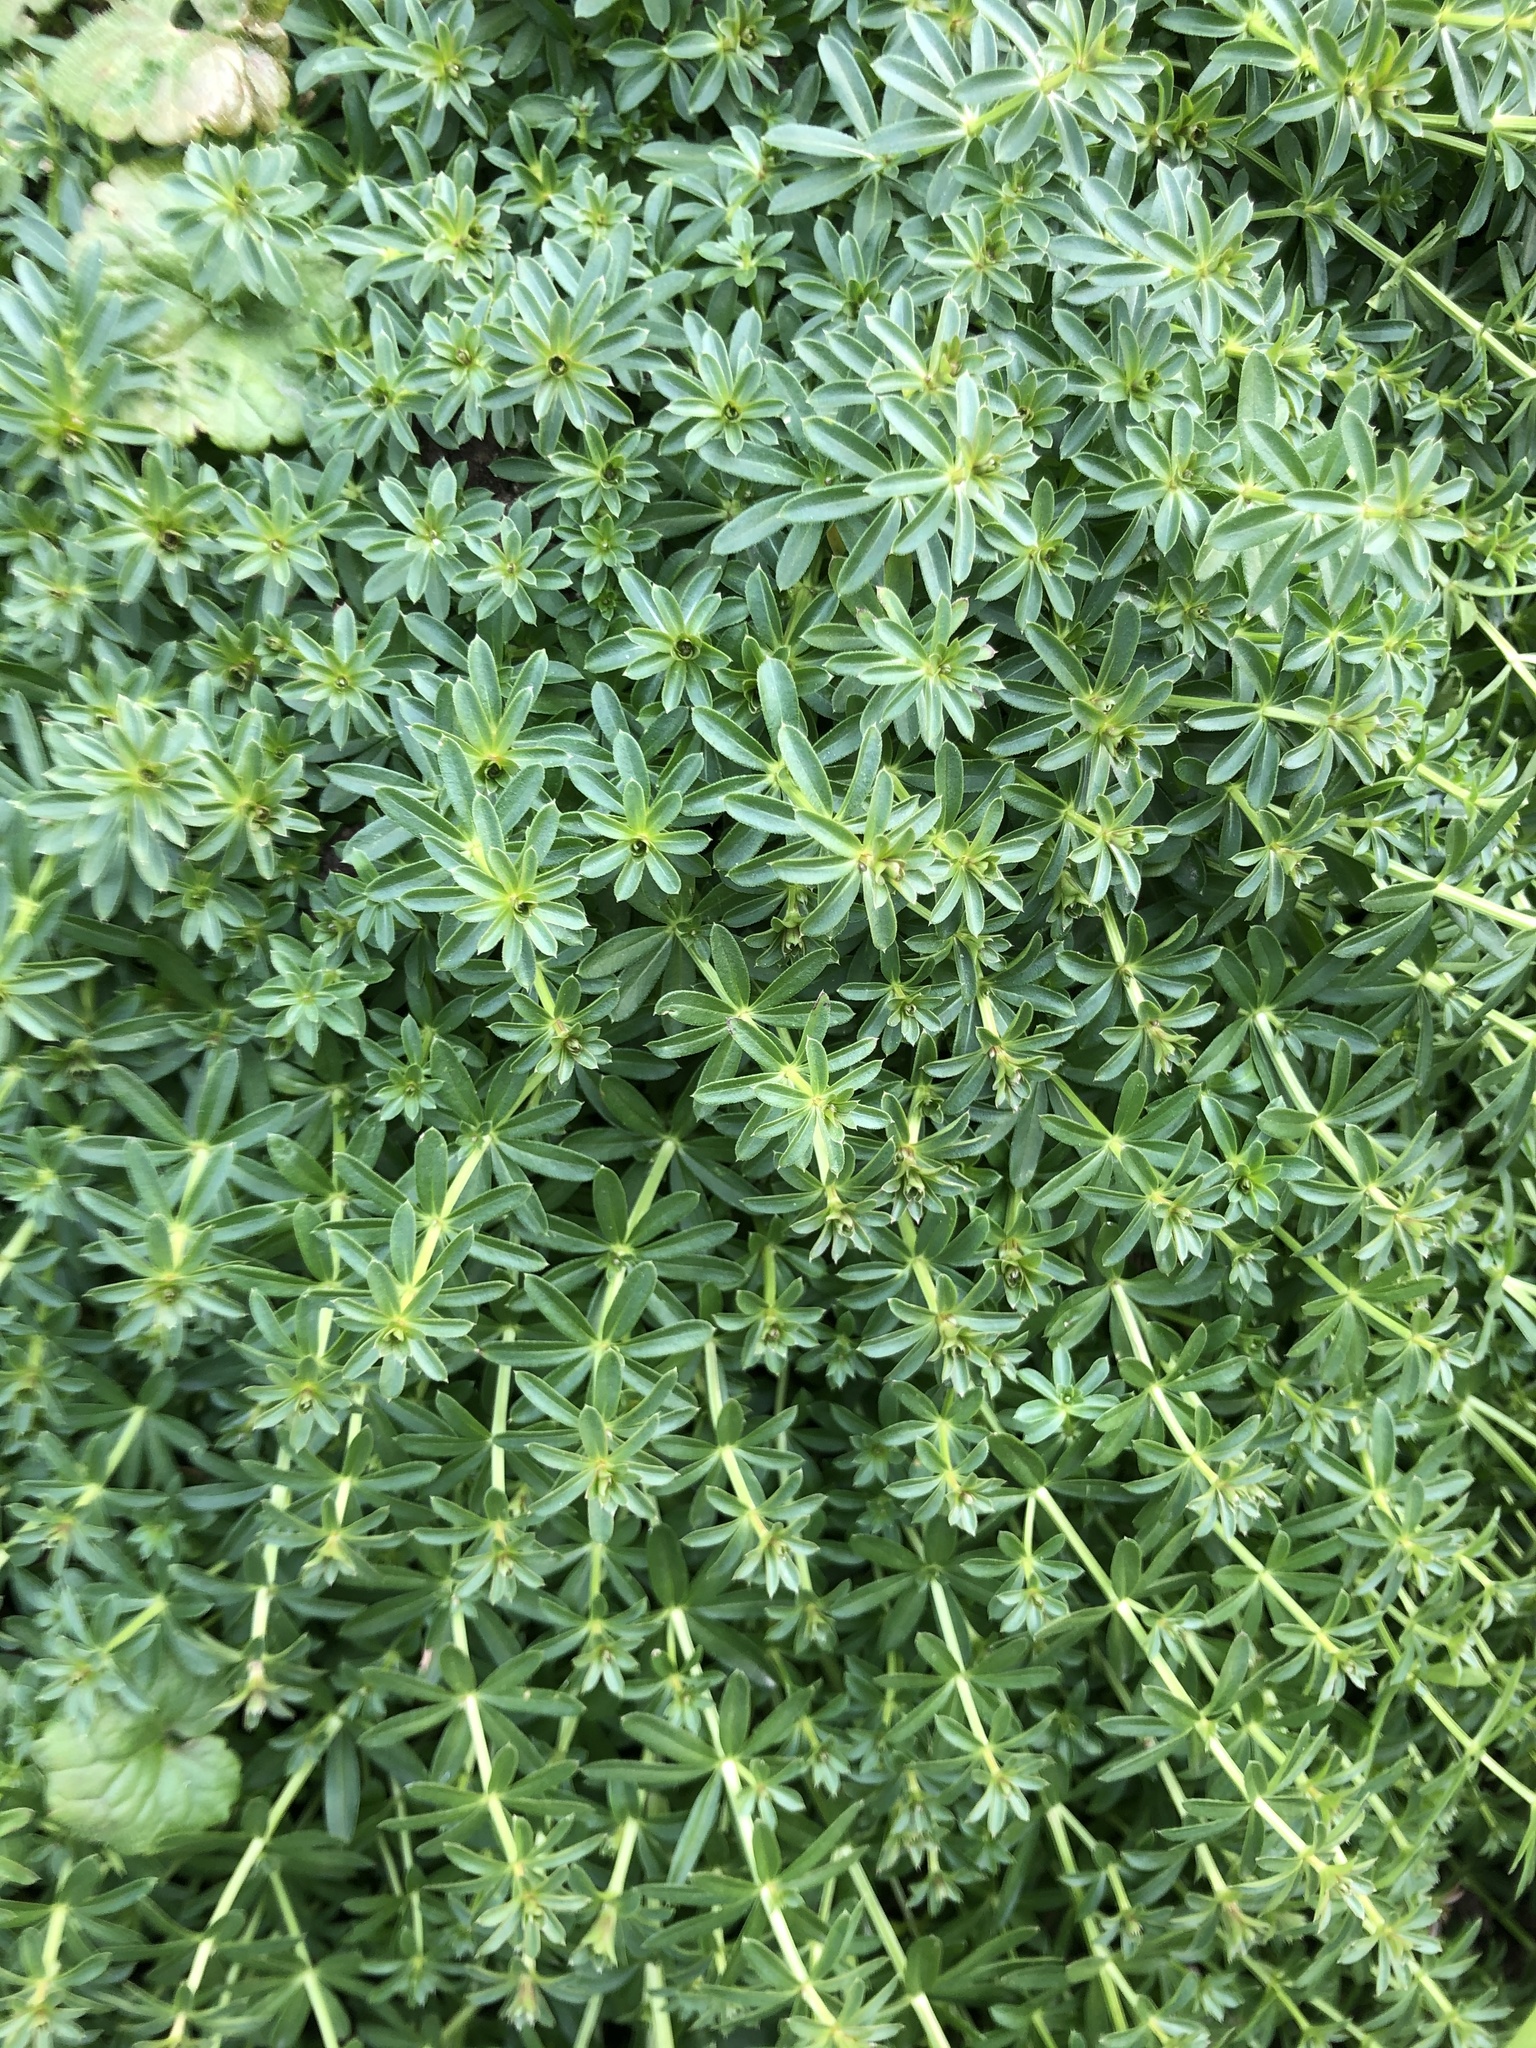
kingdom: Plantae
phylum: Tracheophyta
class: Magnoliopsida
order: Gentianales
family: Rubiaceae
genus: Galium
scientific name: Galium mollugo
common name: Hedge bedstraw
